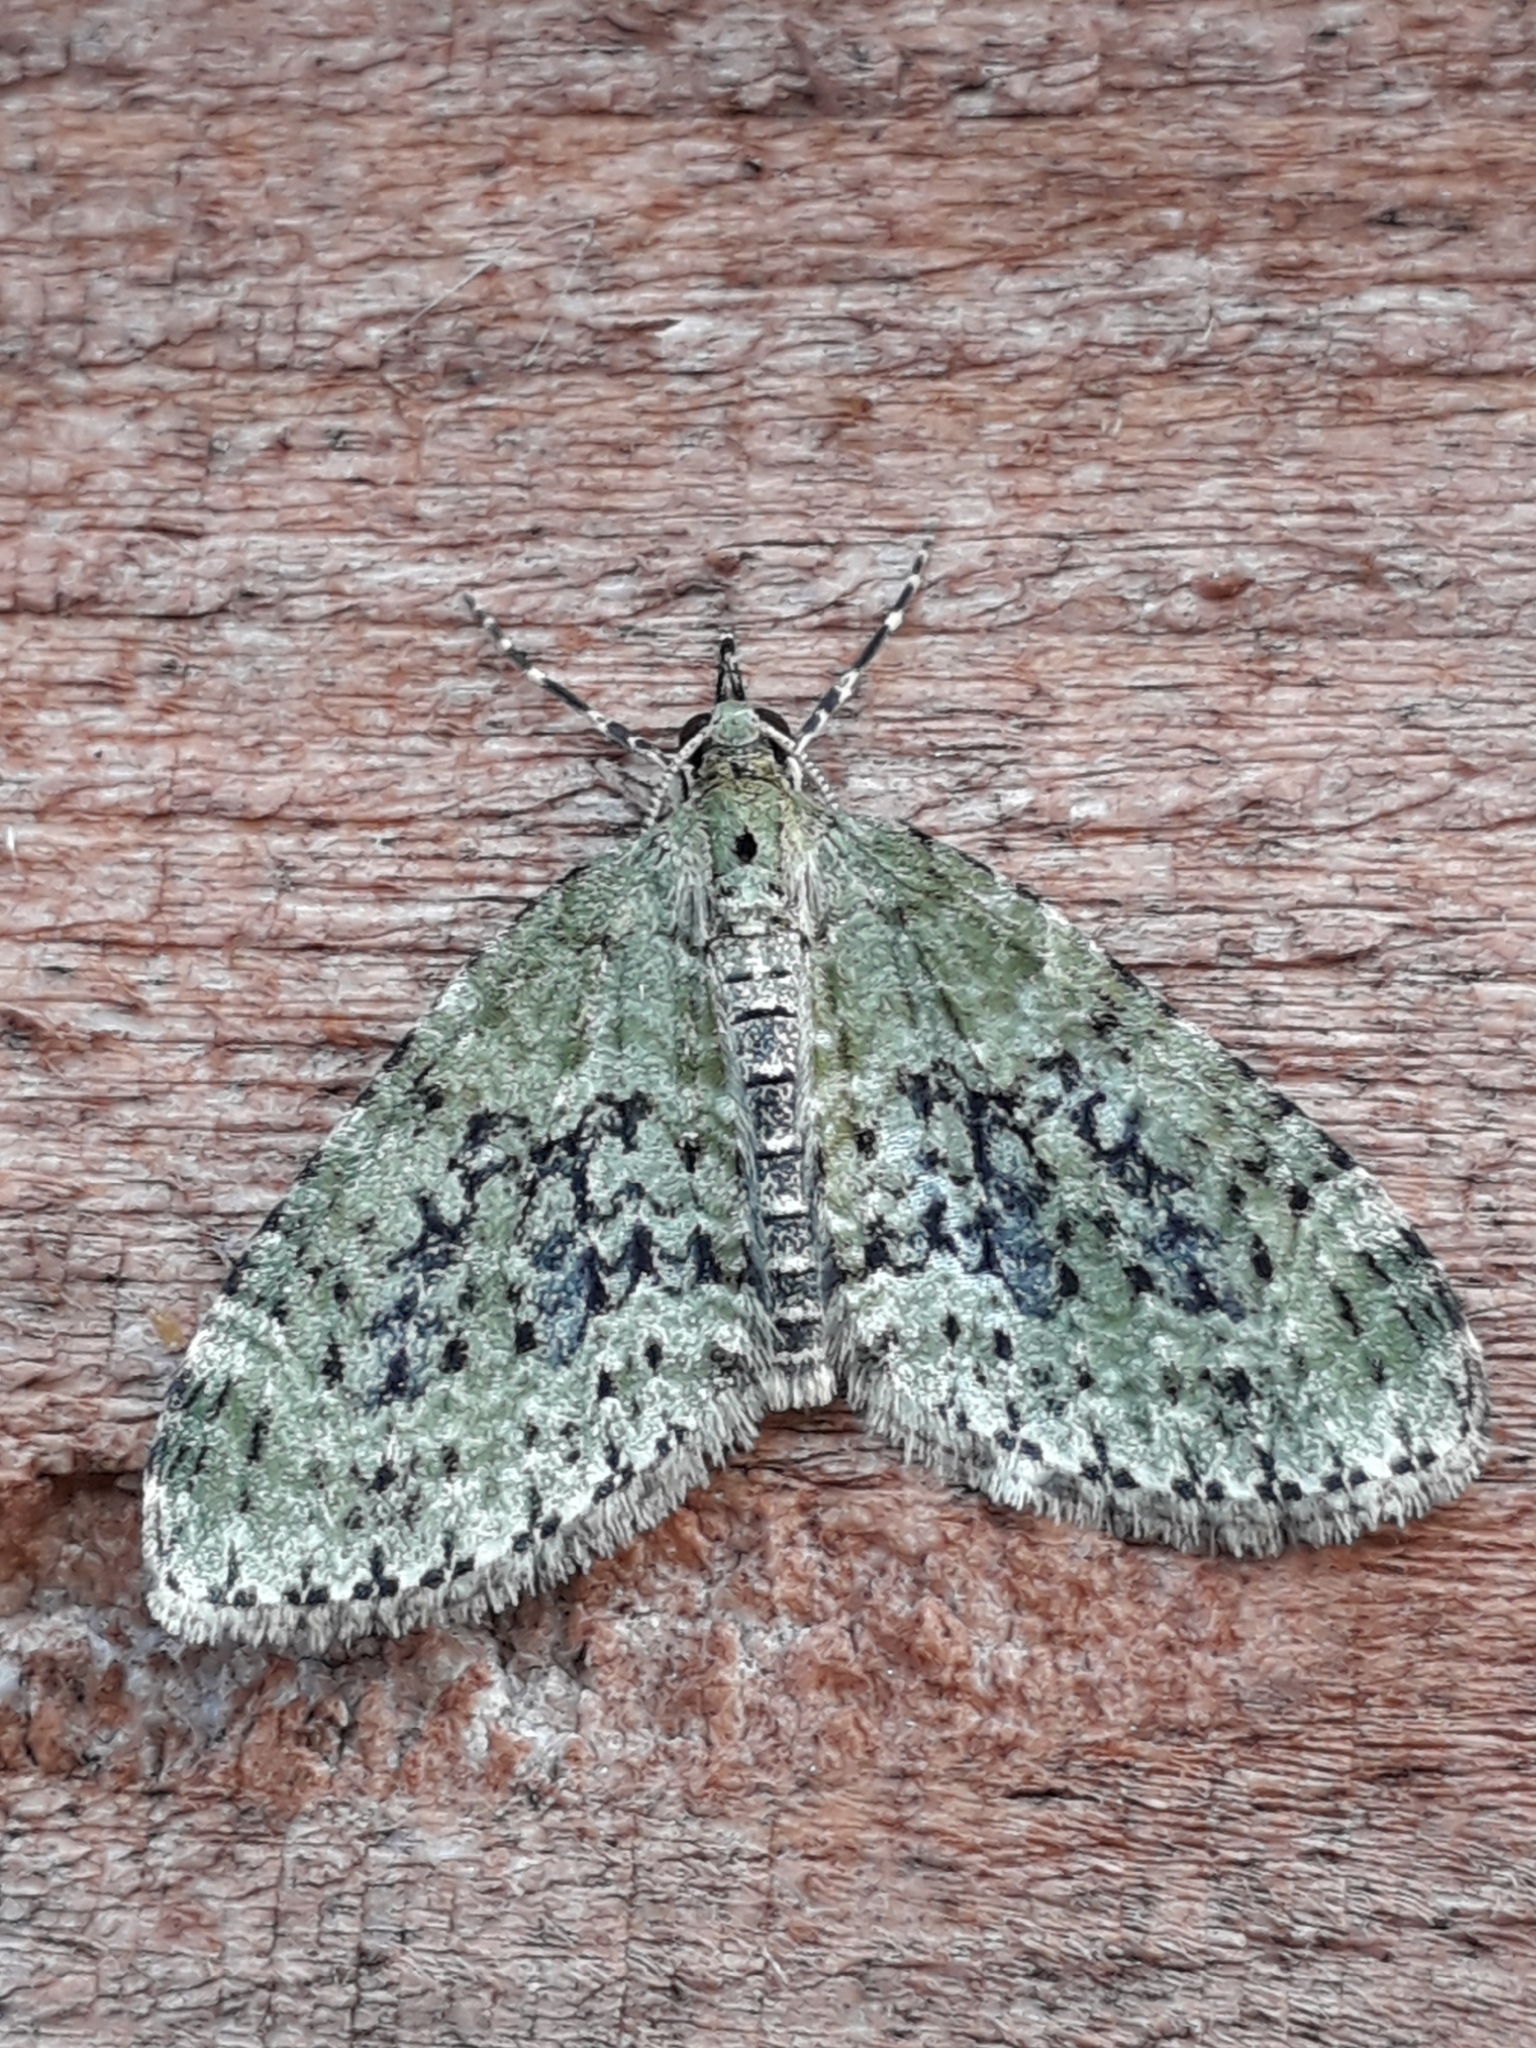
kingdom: Animalia
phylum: Arthropoda
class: Insecta
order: Lepidoptera
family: Geometridae
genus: Acasis
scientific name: Acasis viretata
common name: Yellow-barred brindle
